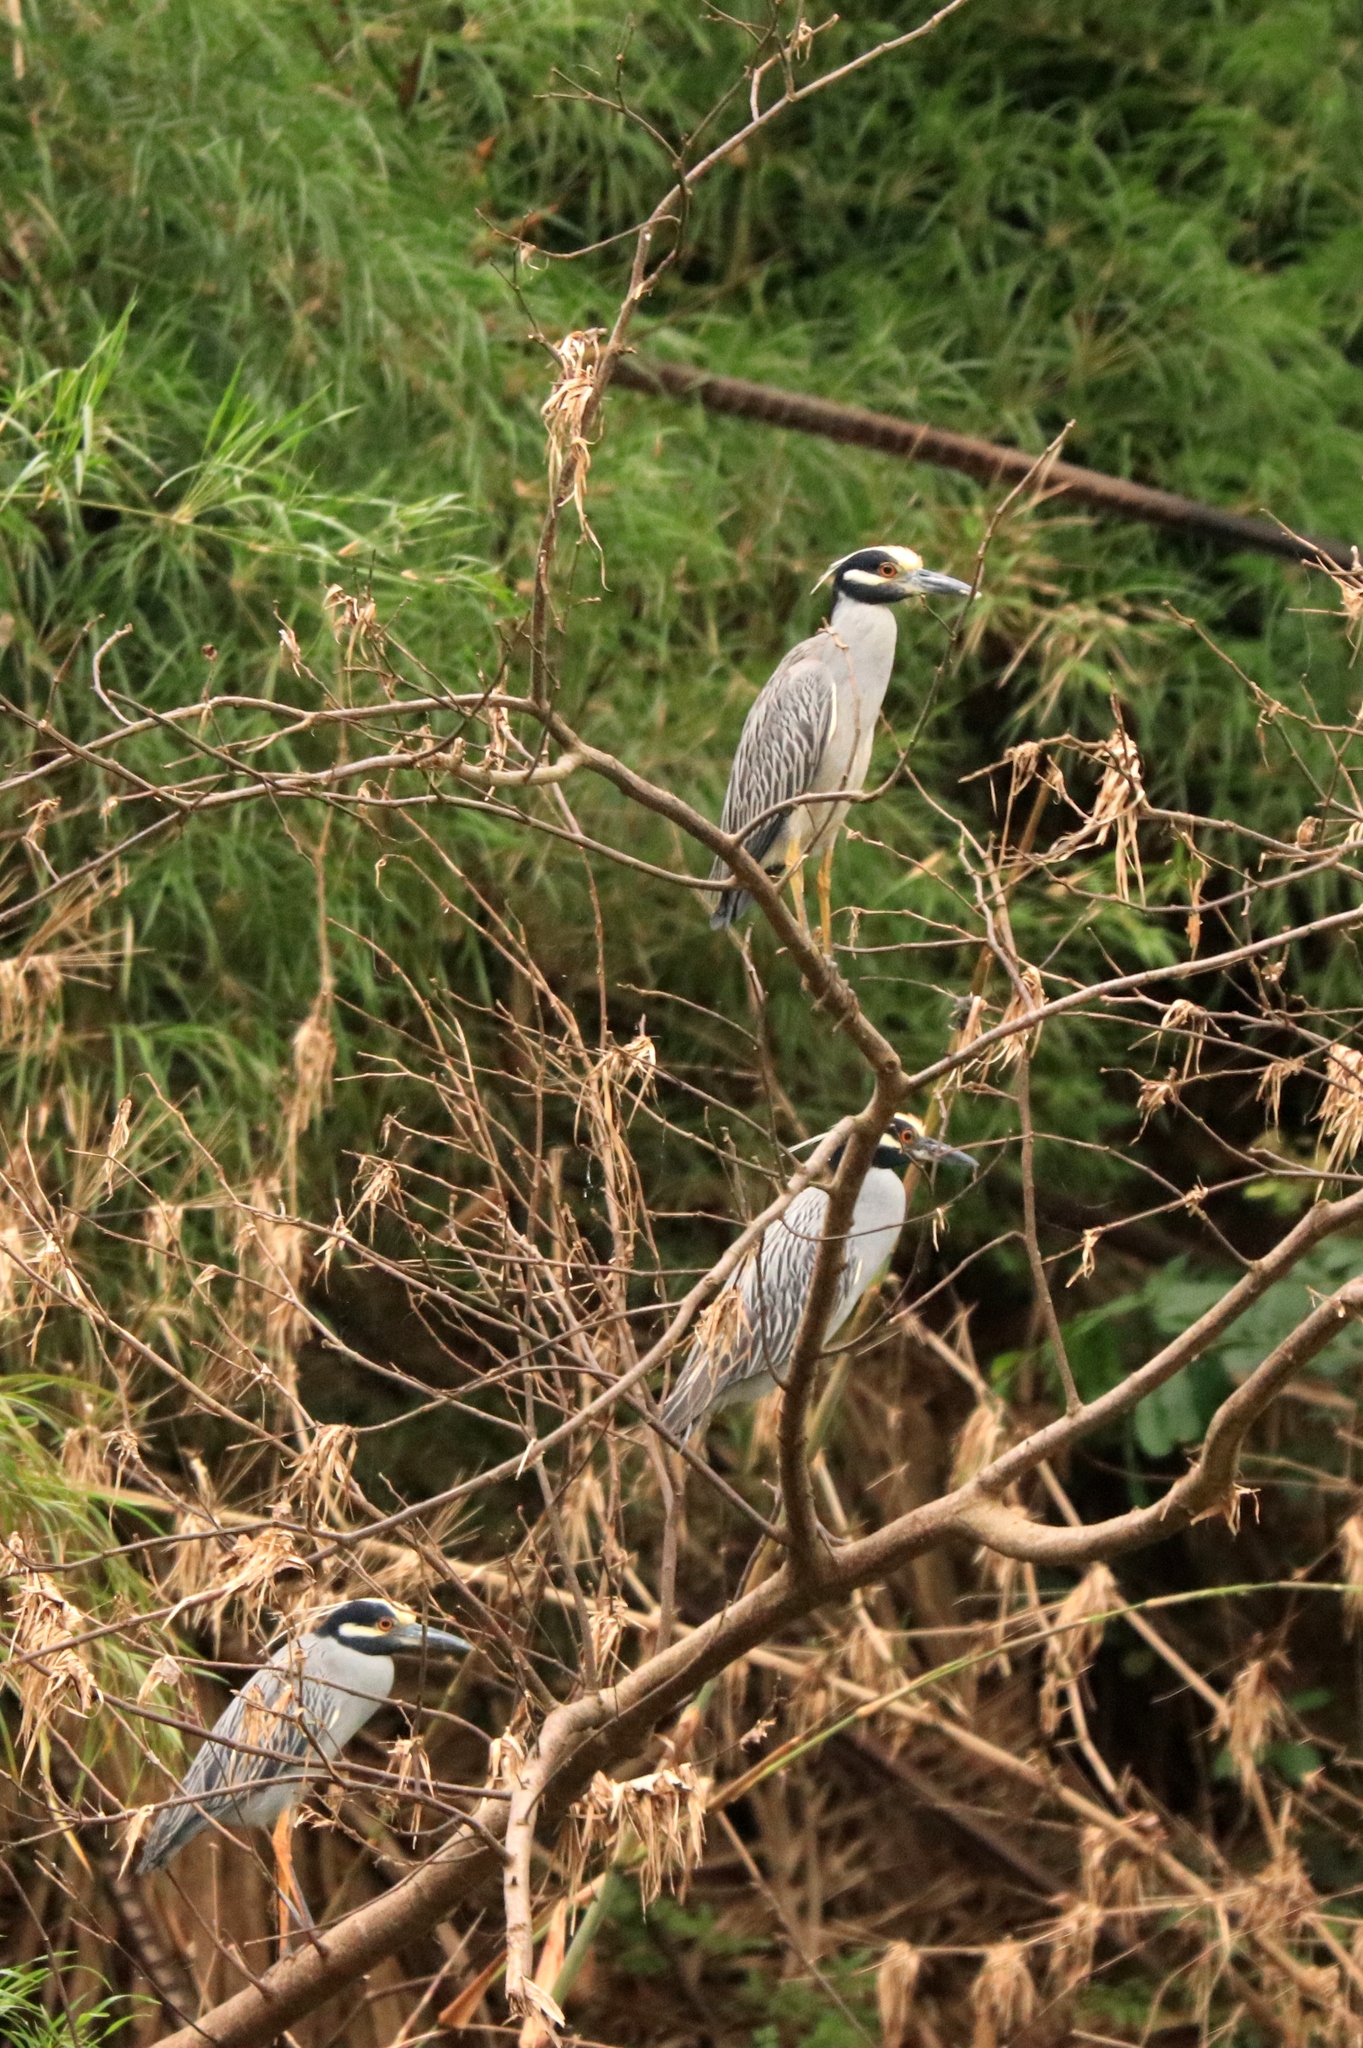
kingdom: Animalia
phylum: Chordata
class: Aves
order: Pelecaniformes
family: Ardeidae
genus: Nyctanassa
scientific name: Nyctanassa violacea
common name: Yellow-crowned night heron
